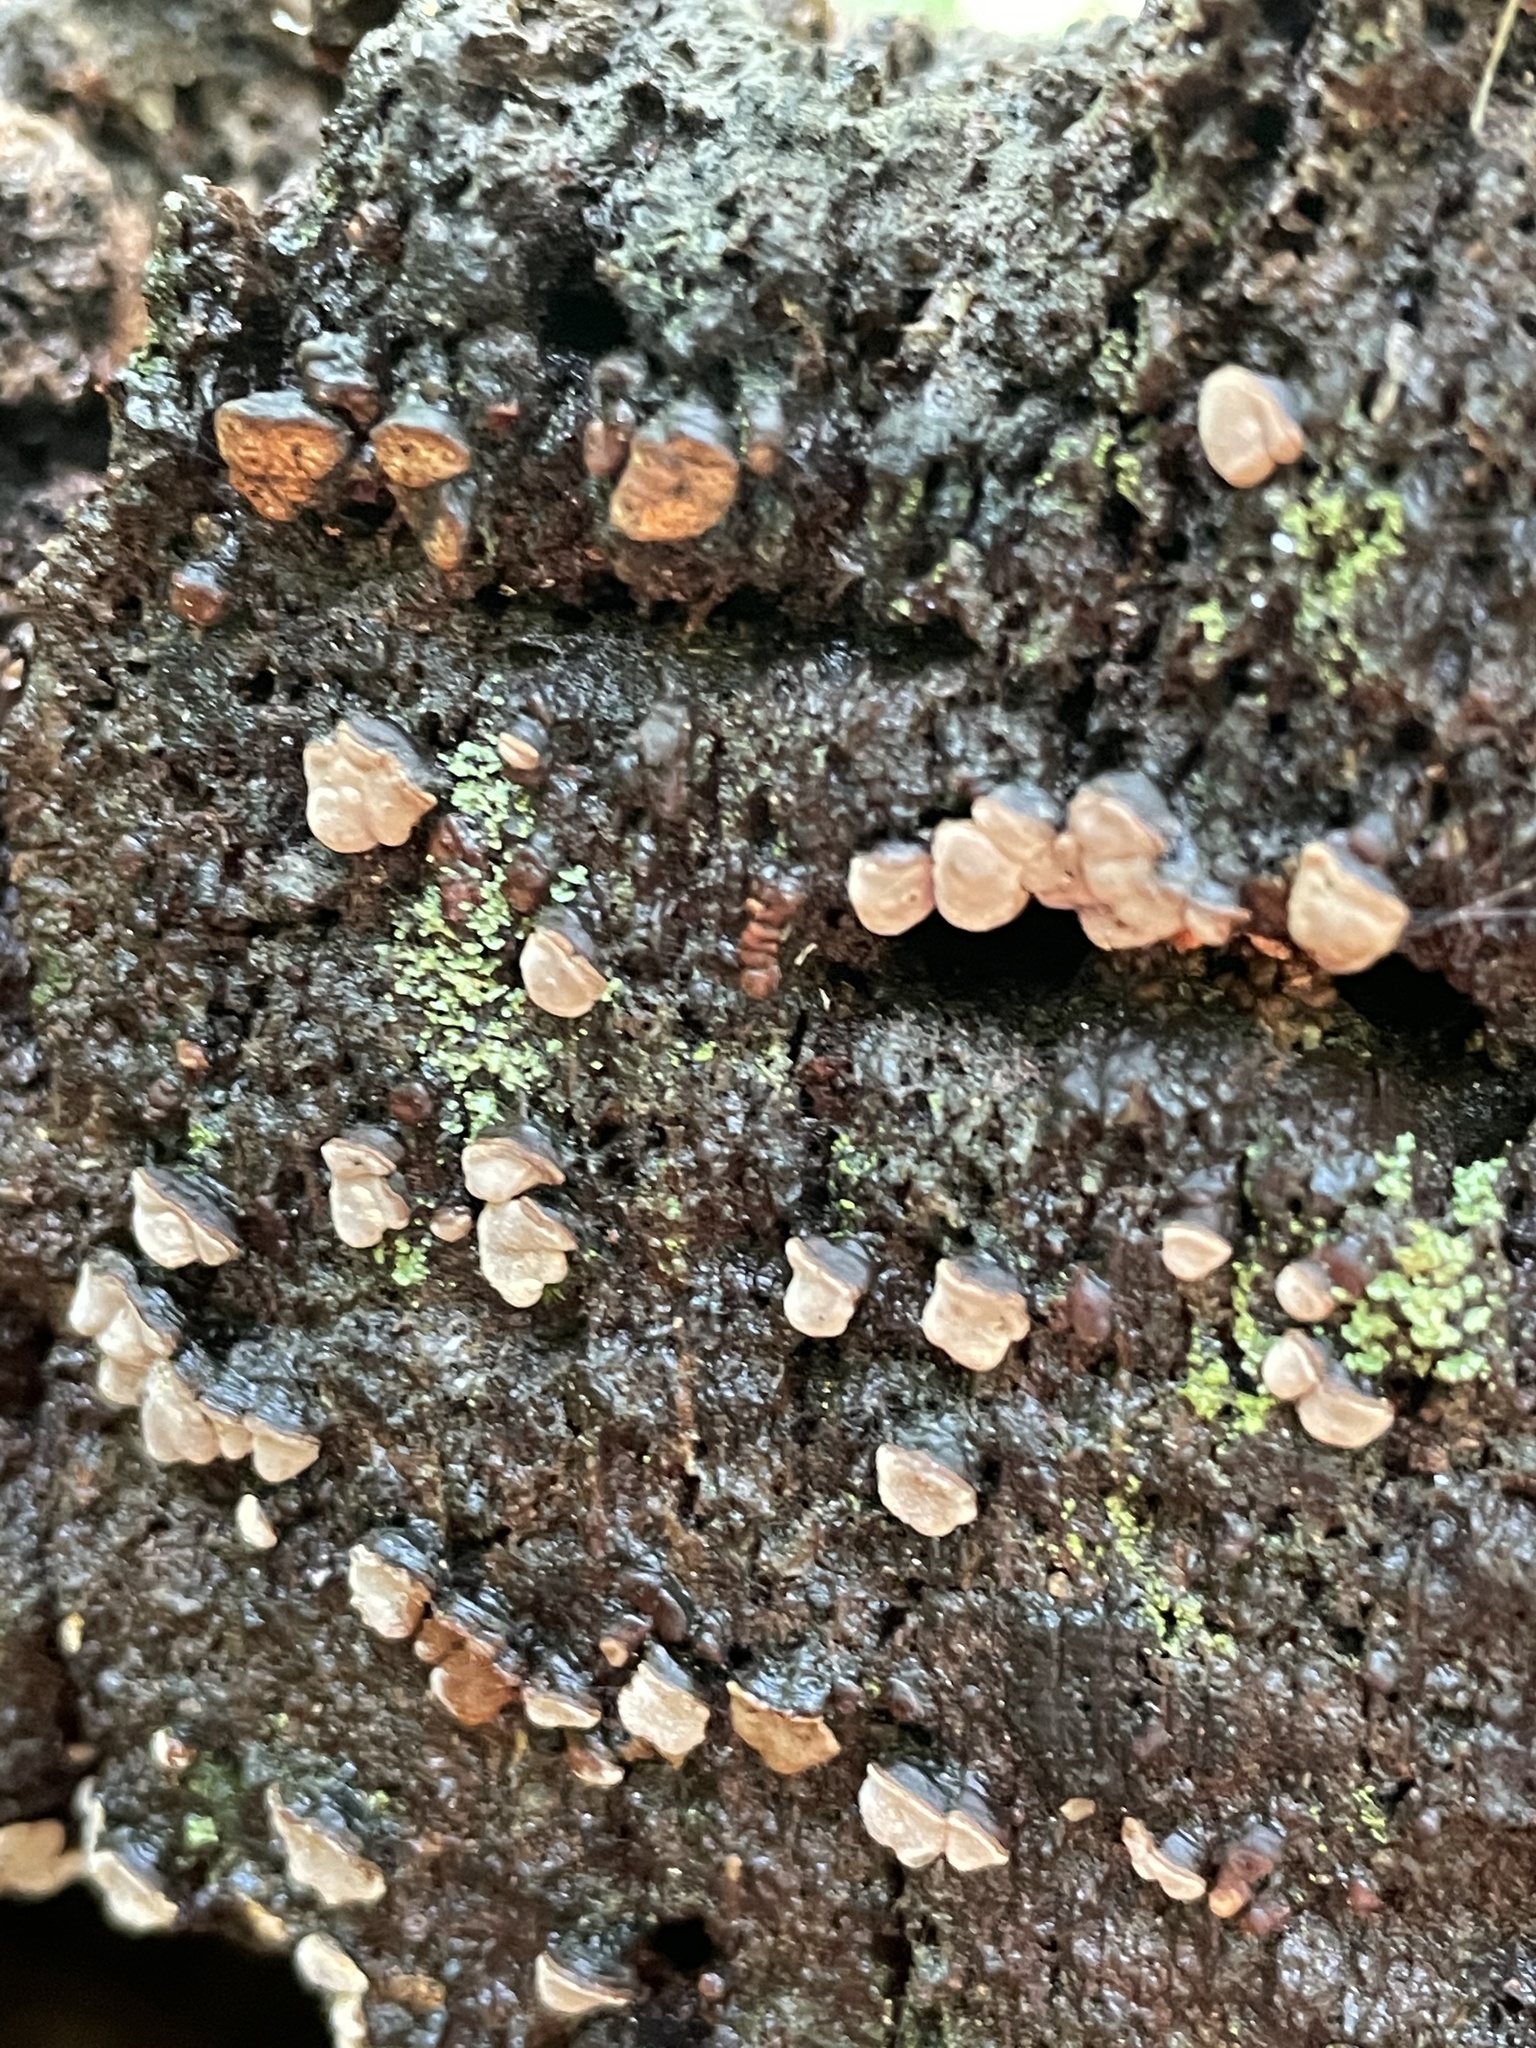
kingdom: Fungi
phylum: Basidiomycota
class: Agaricomycetes
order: Russulales
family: Stereaceae
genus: Xylobolus
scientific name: Xylobolus frustulatus
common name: Ceramic parchment
